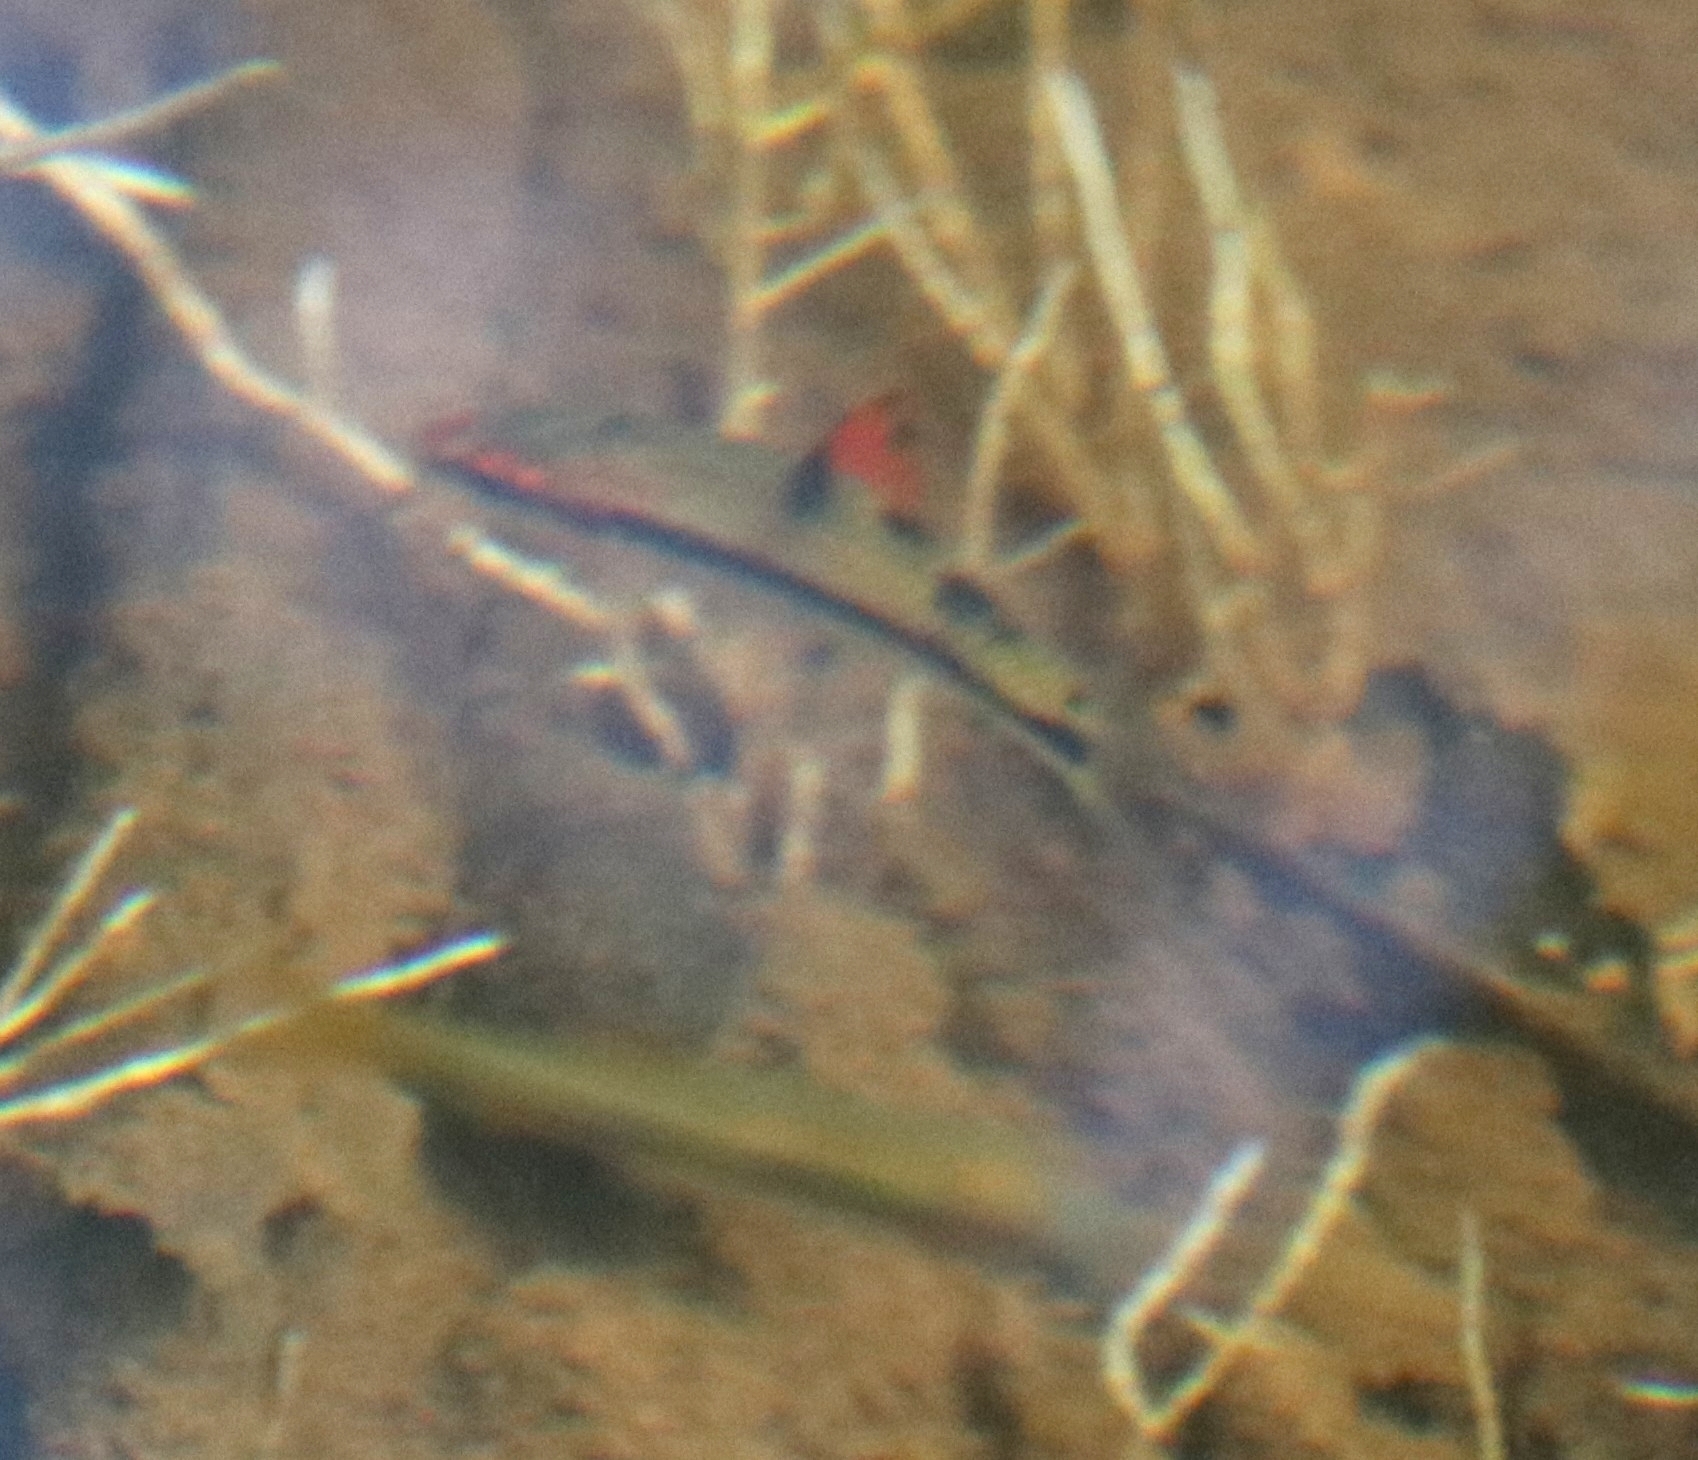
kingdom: Animalia
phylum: Chordata
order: Cypriniformes
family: Cyprinidae
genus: Sahyadria
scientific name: Sahyadria denisonii
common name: Denison barb
